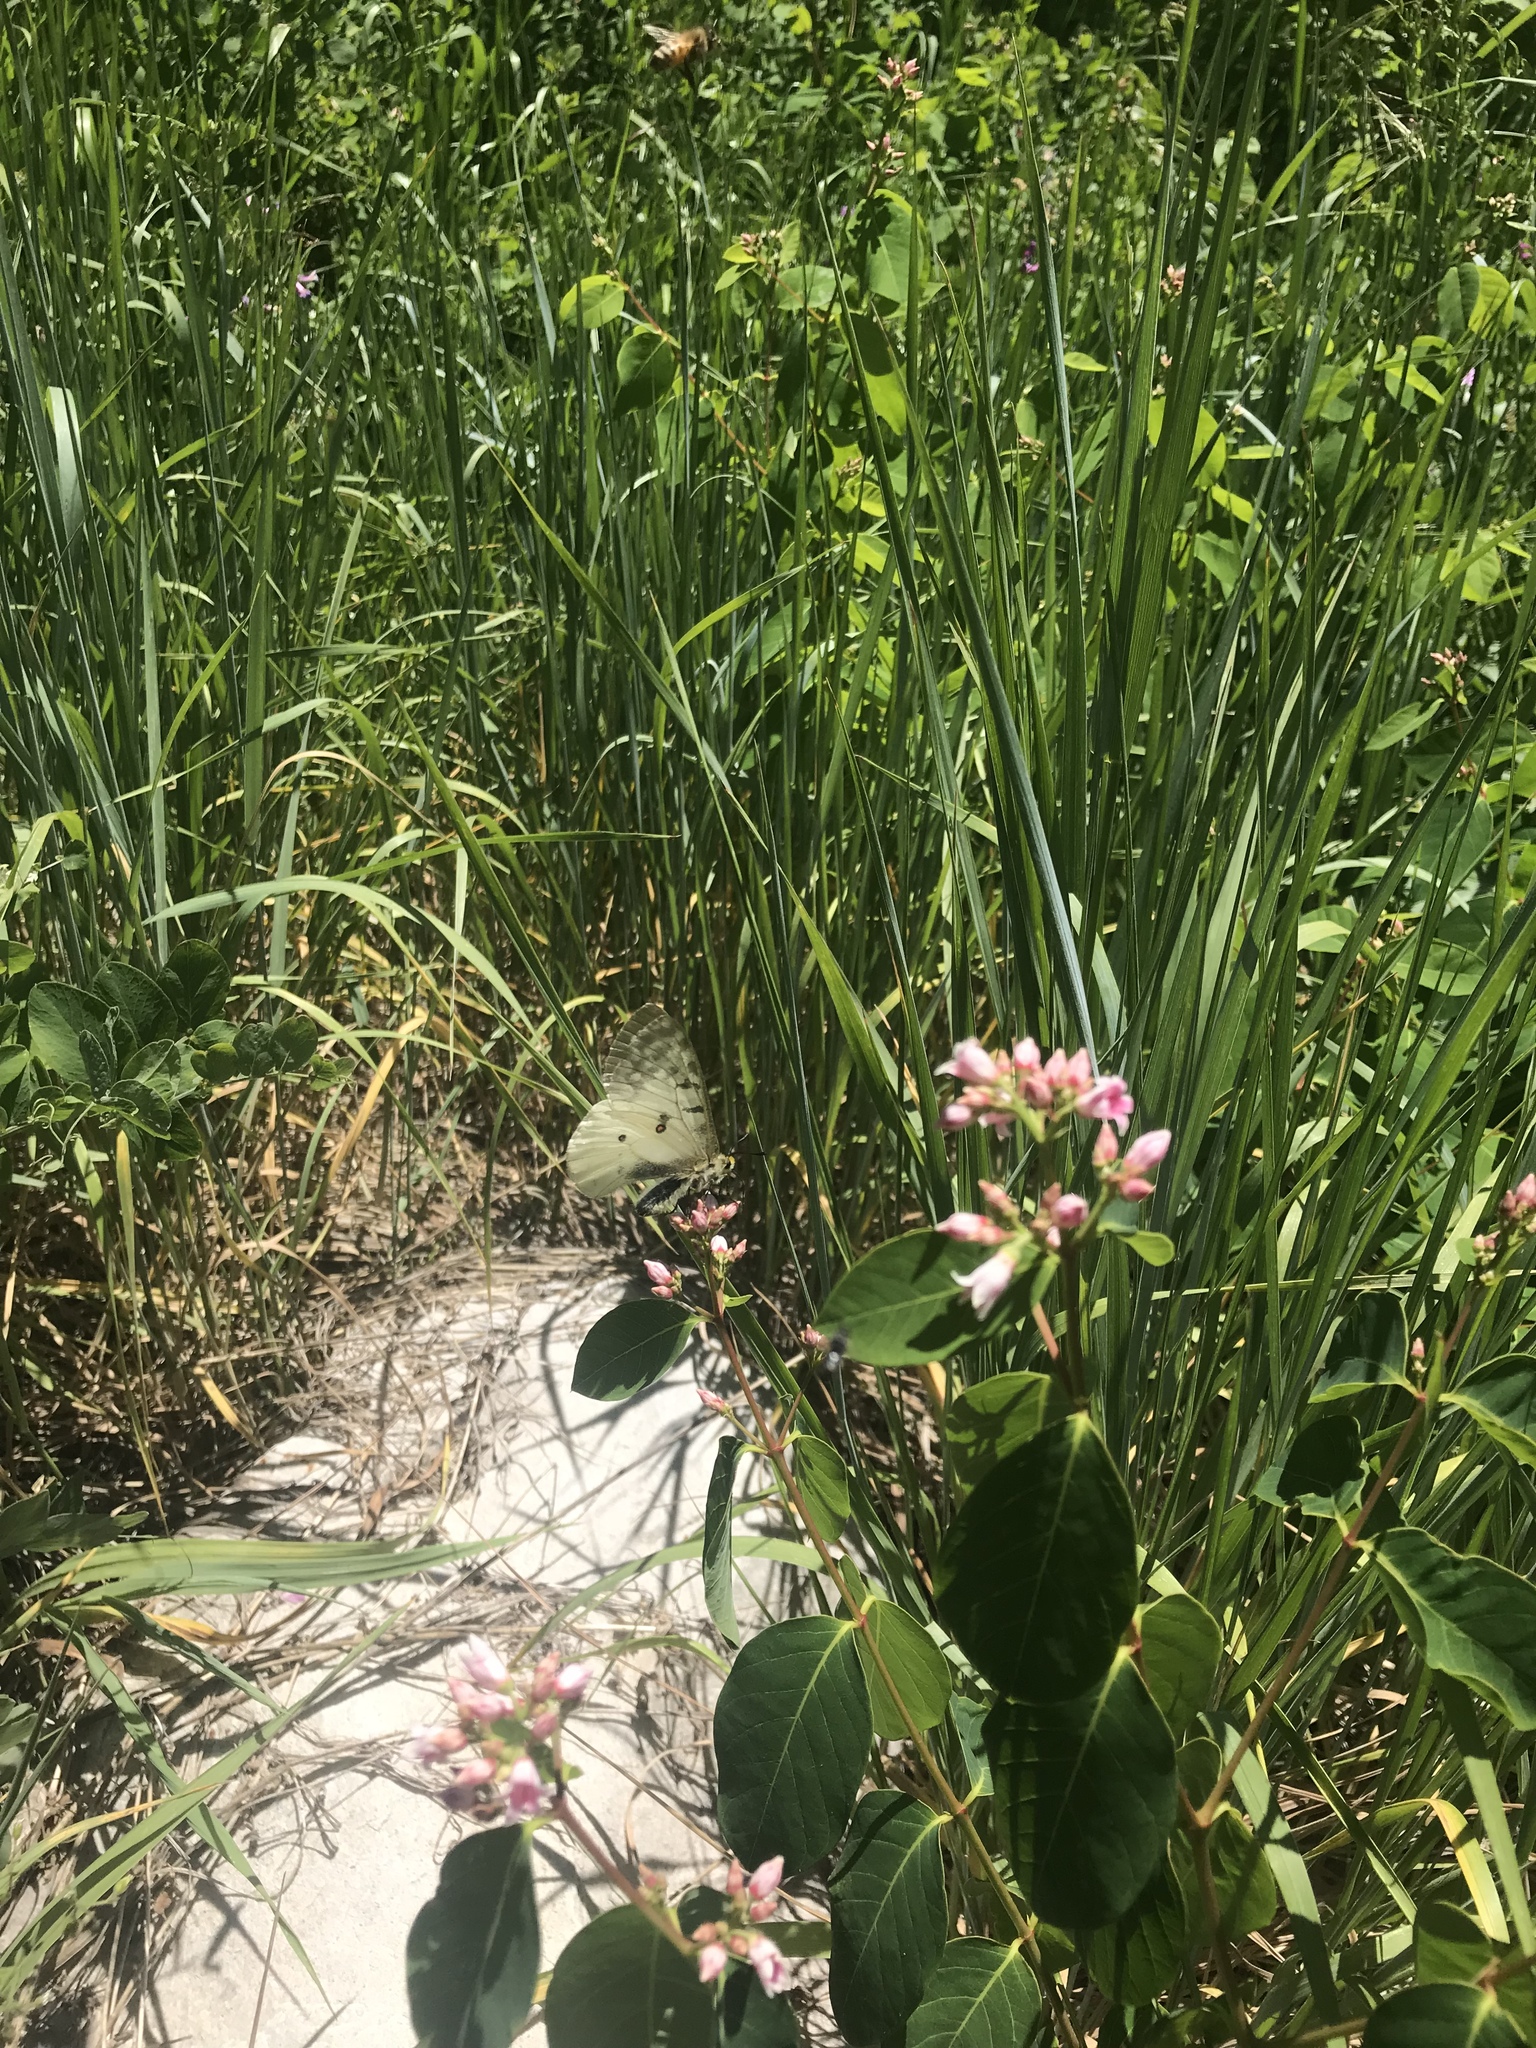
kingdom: Animalia
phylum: Arthropoda
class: Insecta
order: Lepidoptera
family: Papilionidae
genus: Parnassius
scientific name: Parnassius clodius
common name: American apollo
